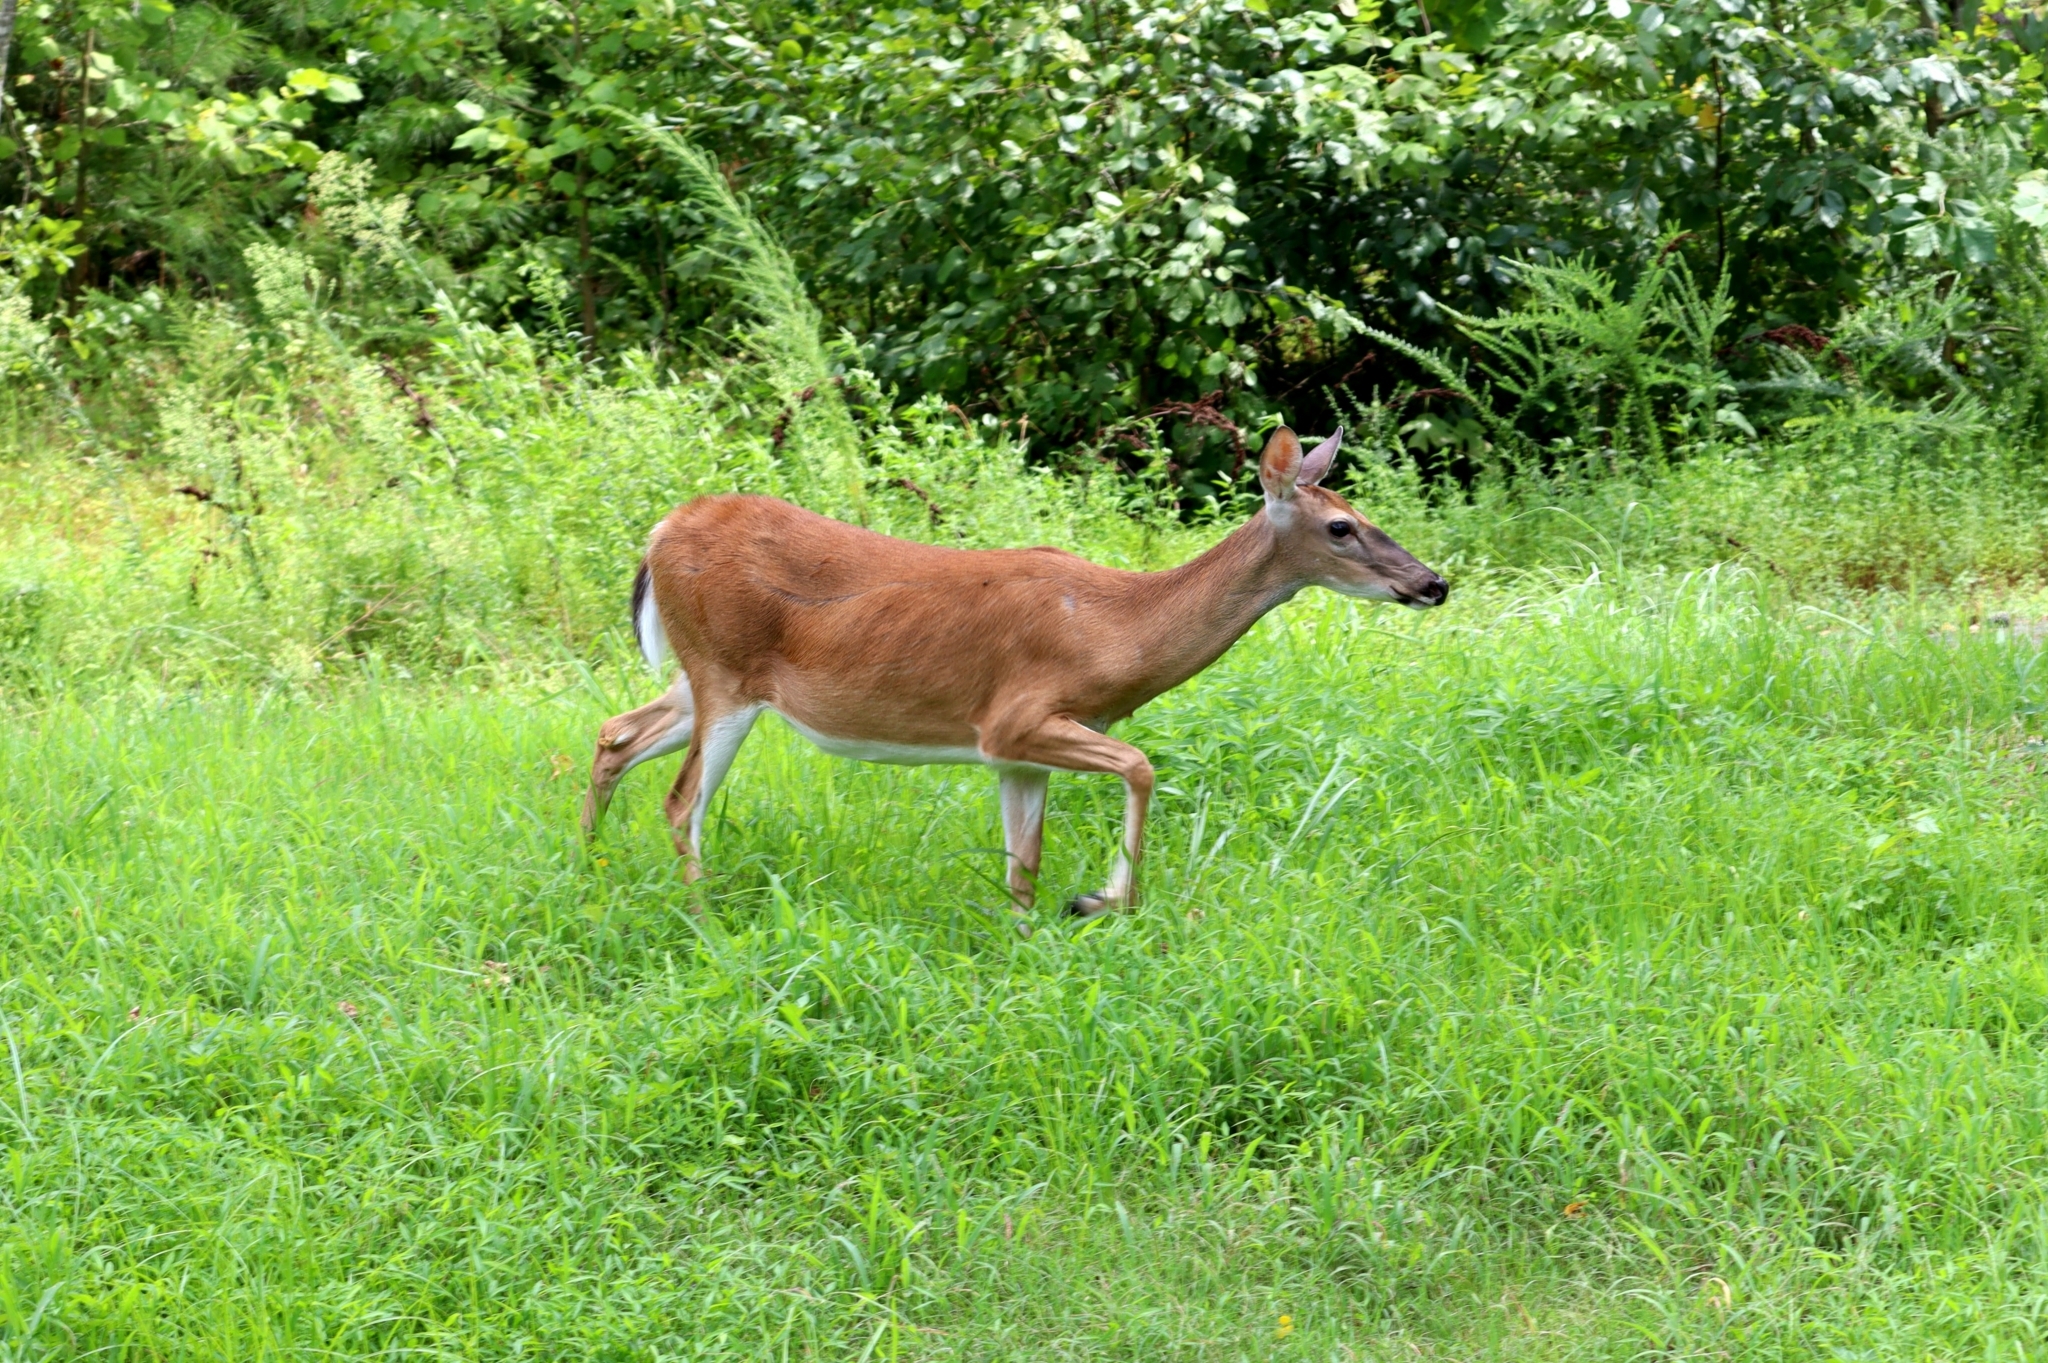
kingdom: Animalia
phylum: Chordata
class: Mammalia
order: Artiodactyla
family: Cervidae
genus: Odocoileus
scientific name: Odocoileus virginianus
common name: White-tailed deer
